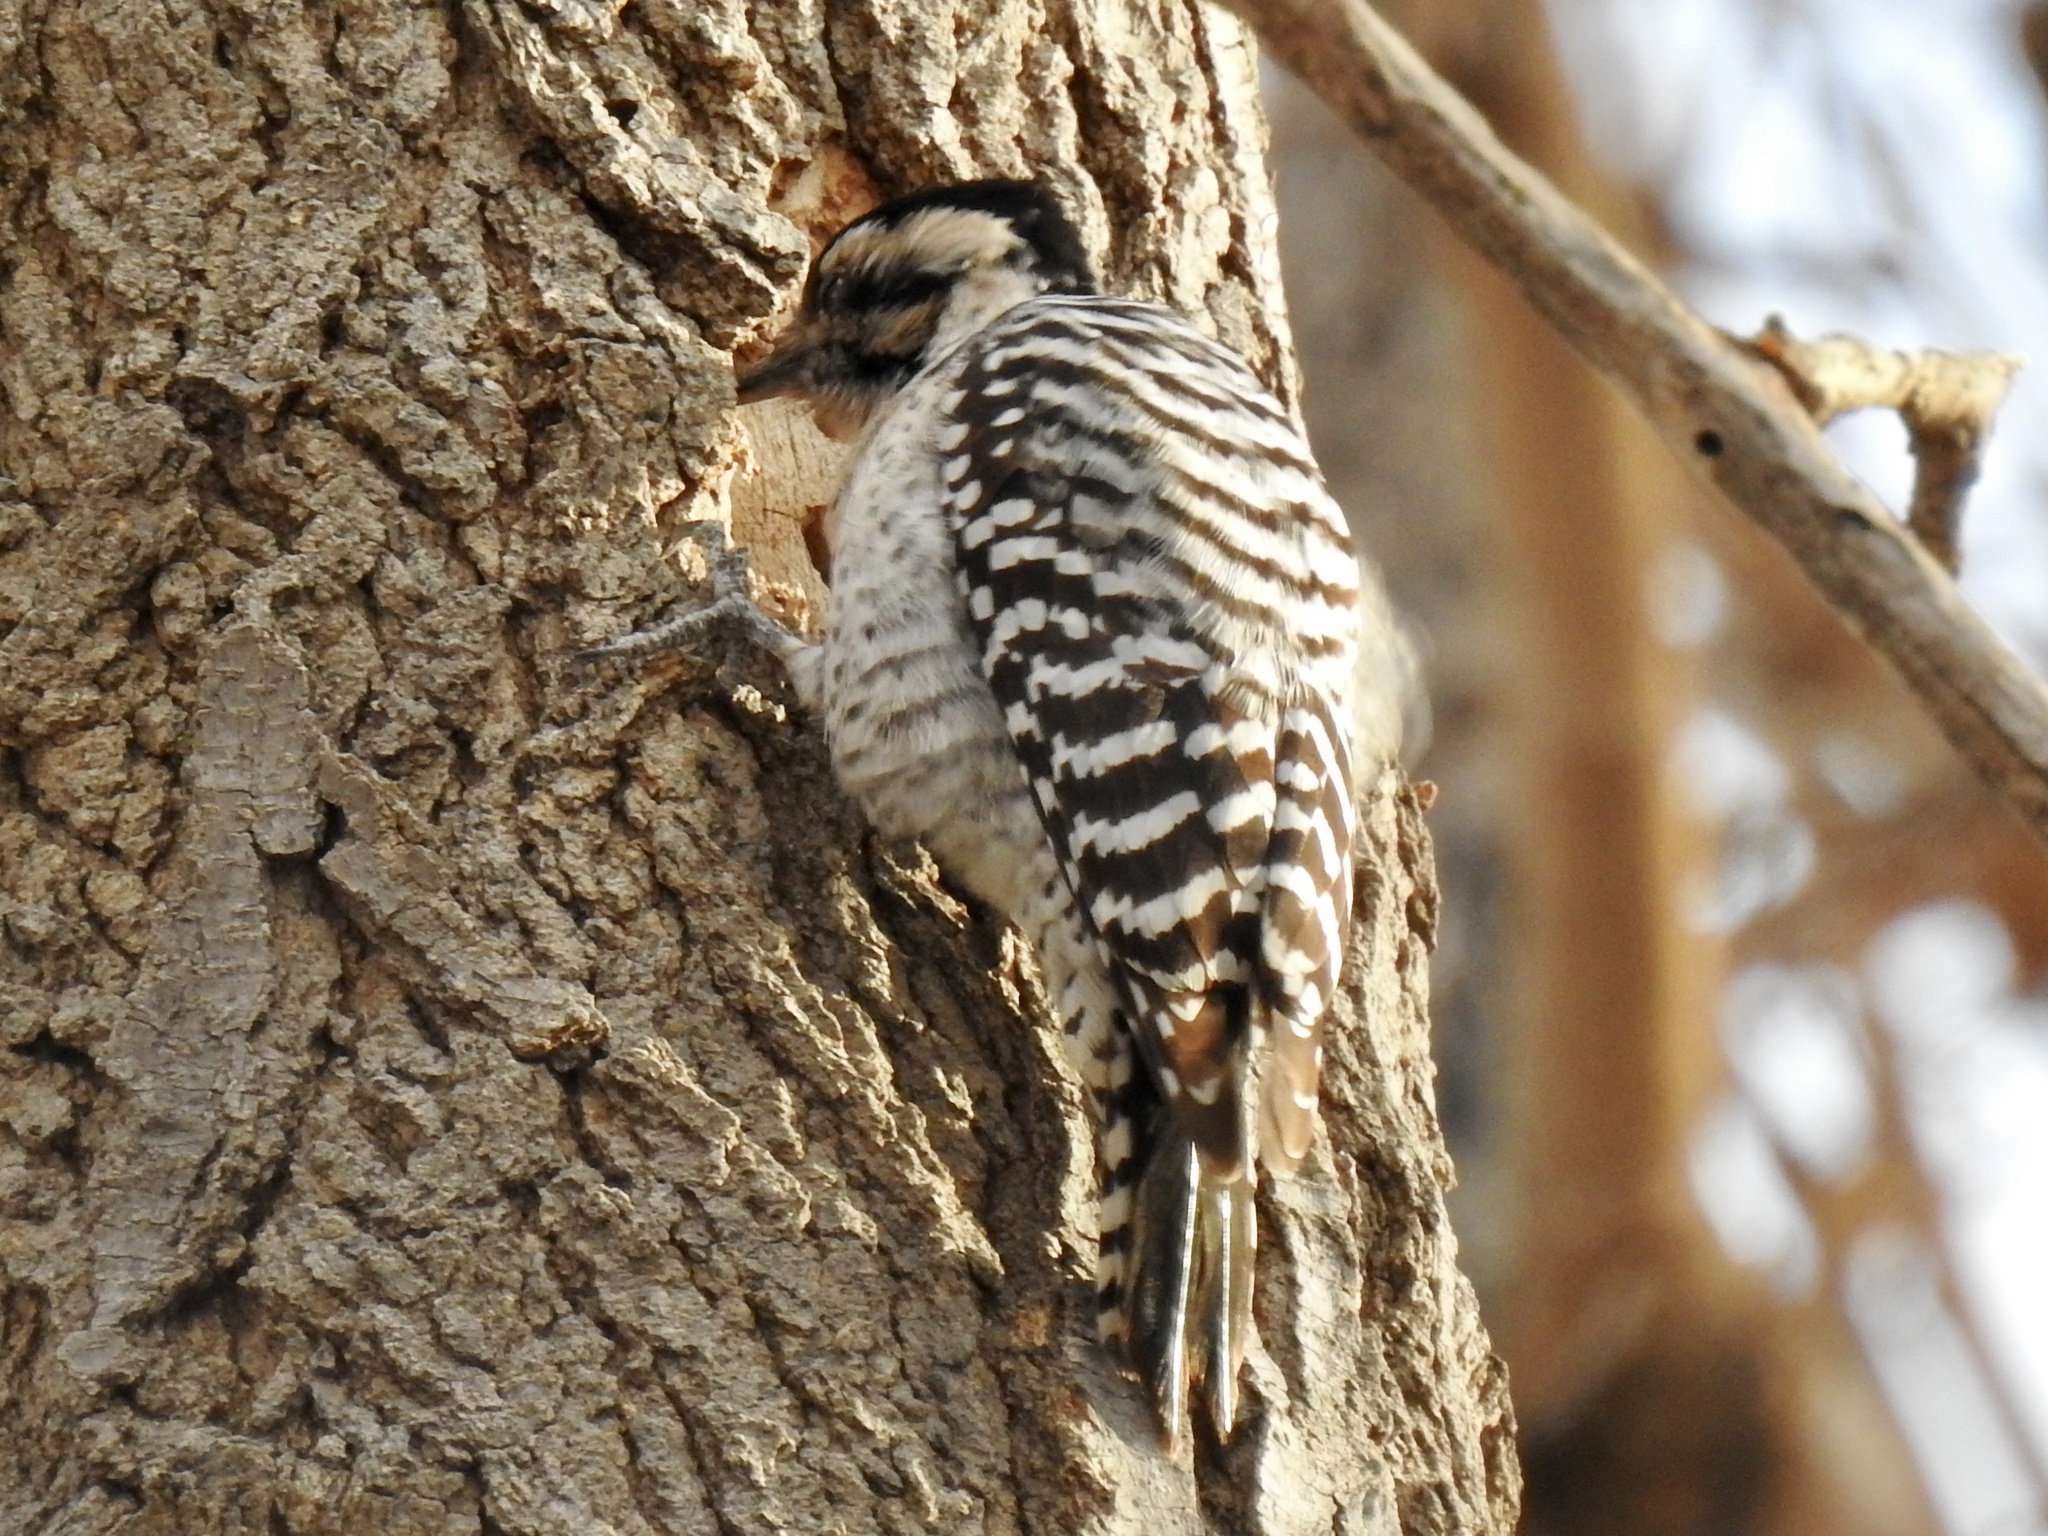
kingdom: Animalia
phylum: Chordata
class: Aves
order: Piciformes
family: Picidae
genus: Dryobates
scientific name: Dryobates scalaris
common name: Ladder-backed woodpecker
